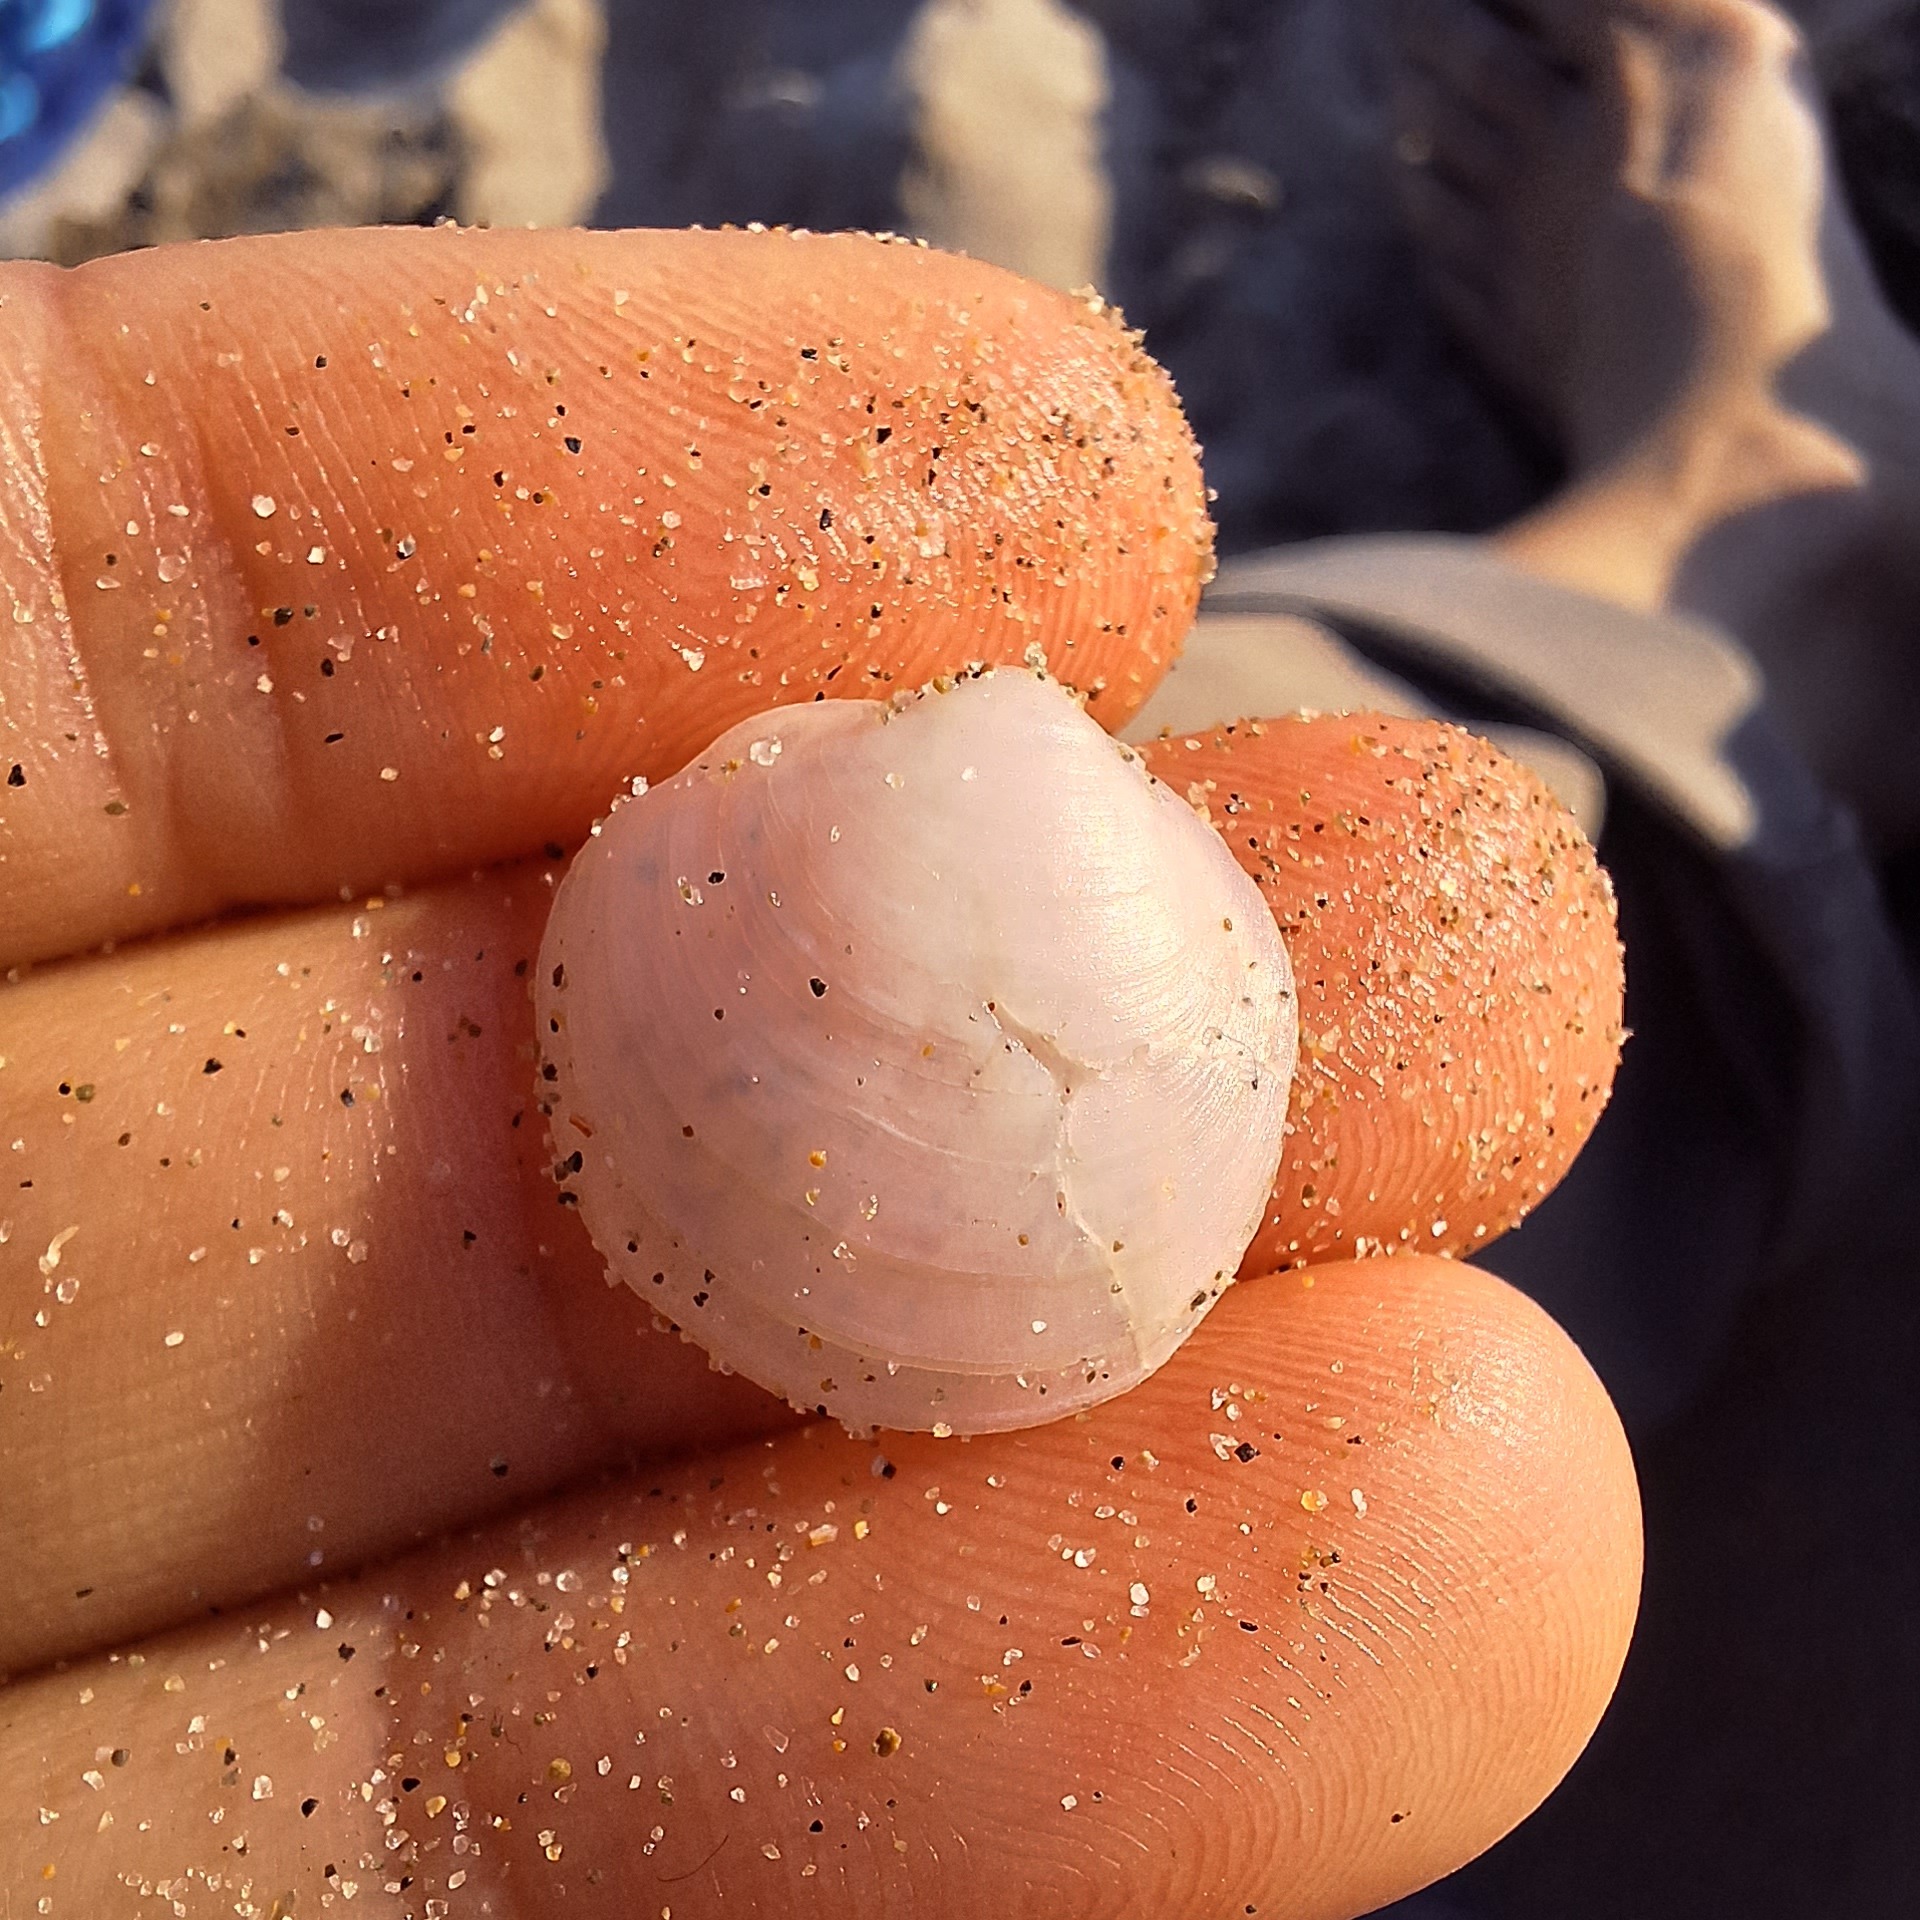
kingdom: Animalia
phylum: Mollusca
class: Bivalvia
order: Lucinida
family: Lucinidae
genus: Loripes
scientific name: Loripes orbiculatus
